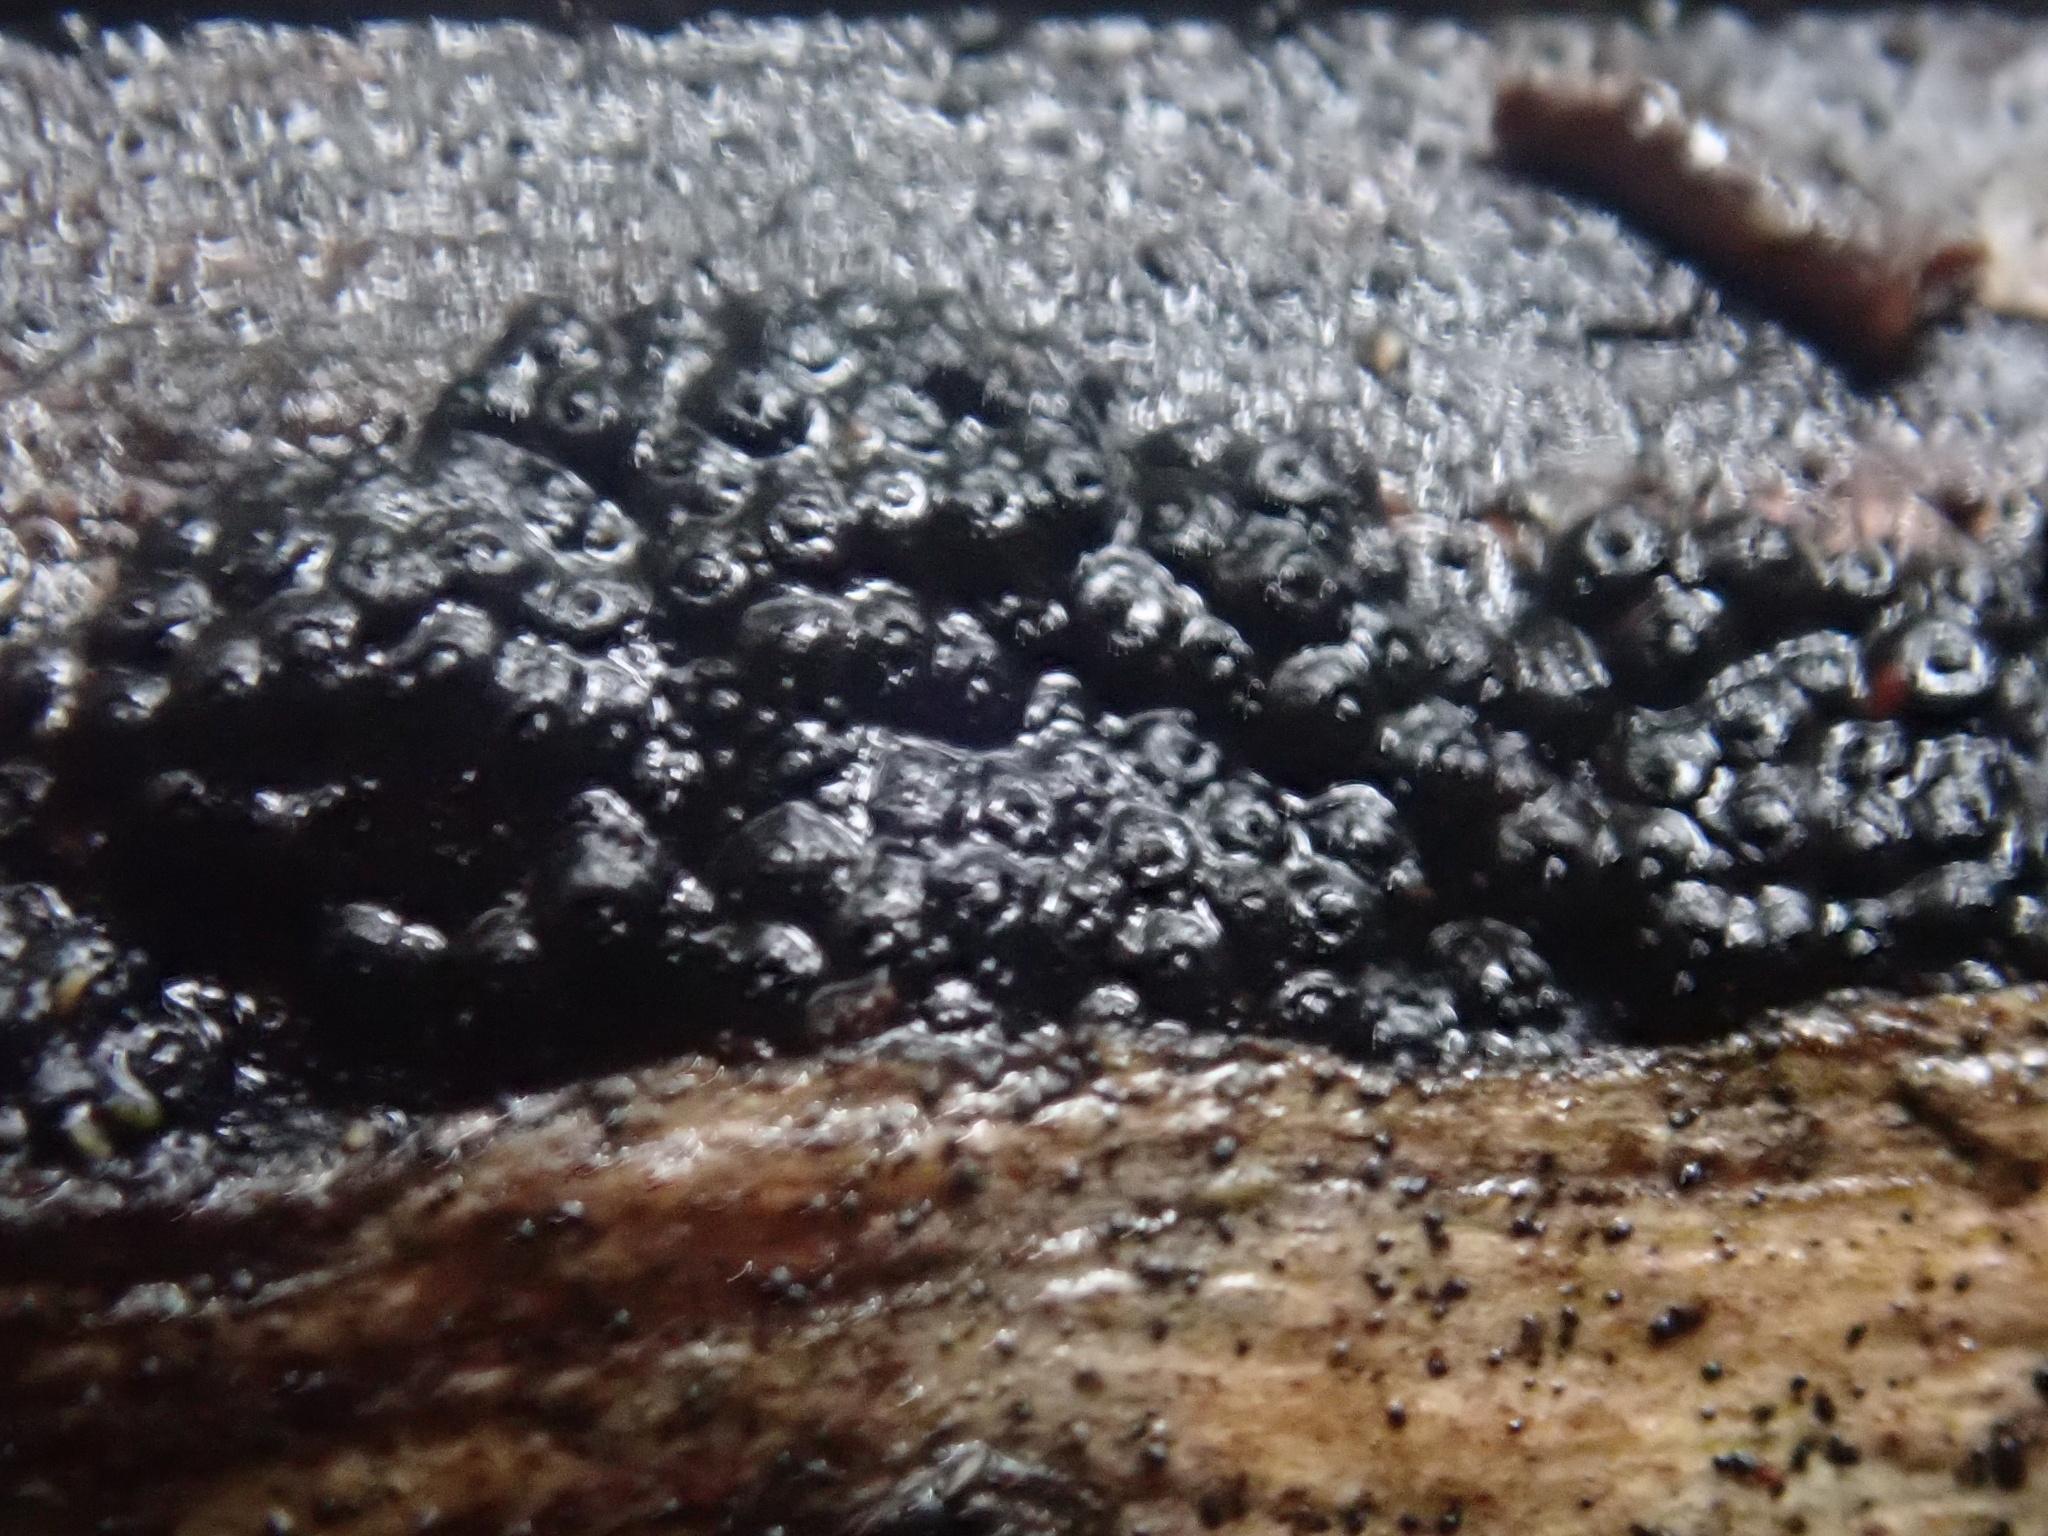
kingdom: Fungi
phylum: Ascomycota
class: Sordariomycetes
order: Xylariales
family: Hypoxylaceae
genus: Annulohypoxylon
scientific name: Annulohypoxylon bovei
